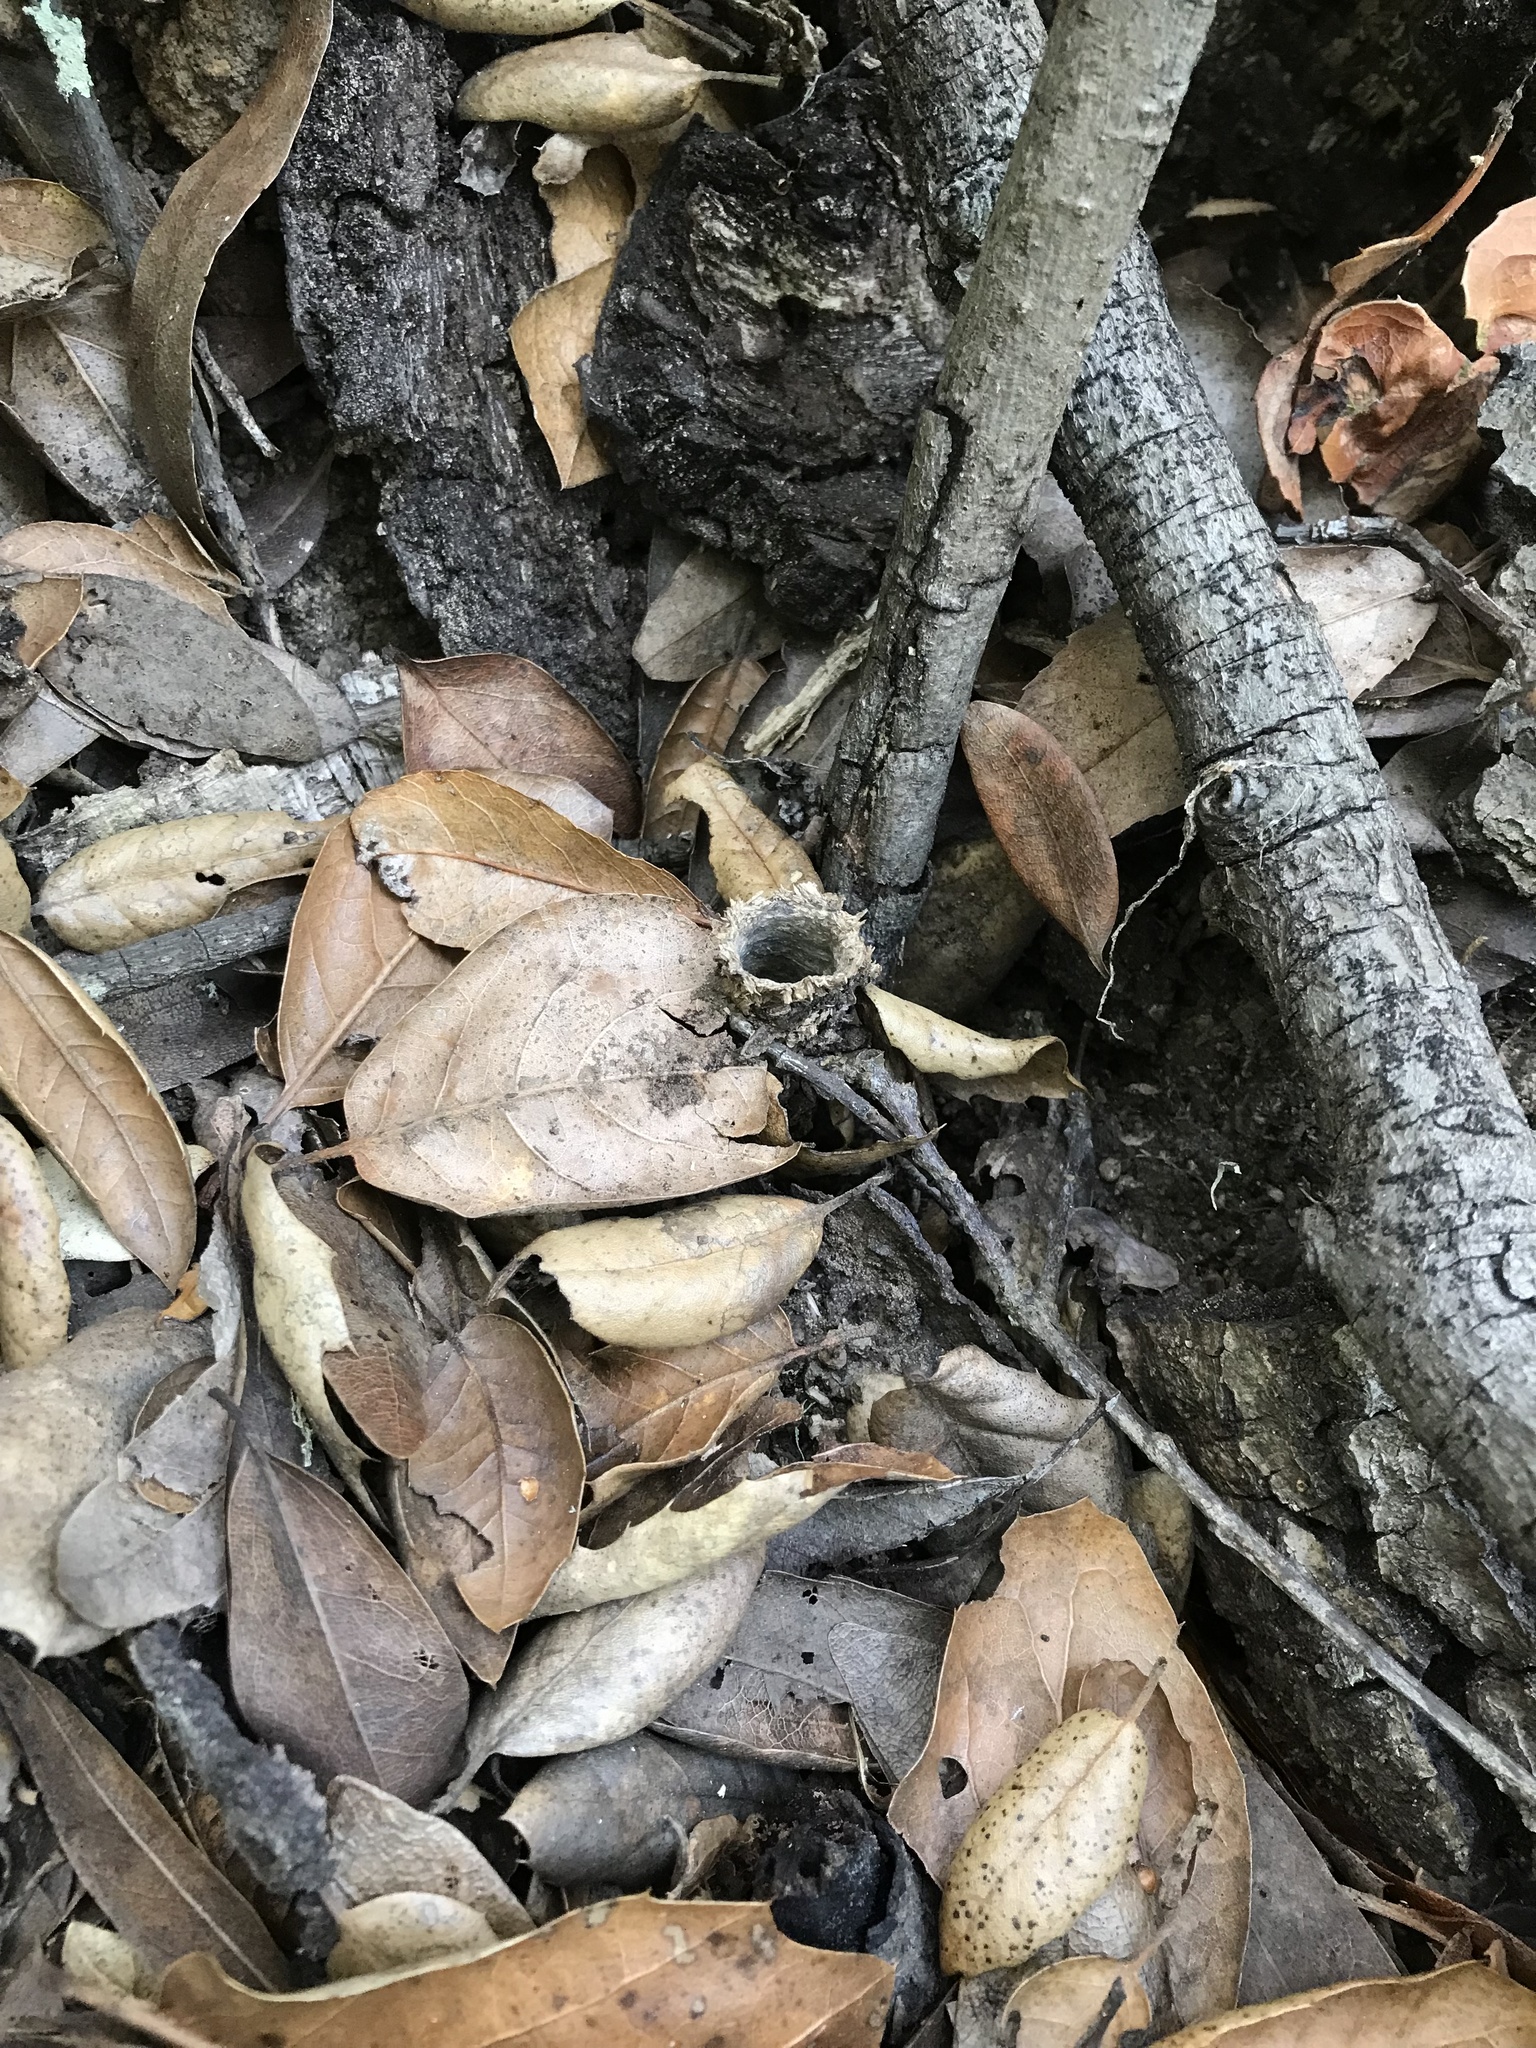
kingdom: Animalia
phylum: Arthropoda
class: Arachnida
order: Araneae
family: Antrodiaetidae
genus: Atypoides
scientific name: Atypoides riversi
